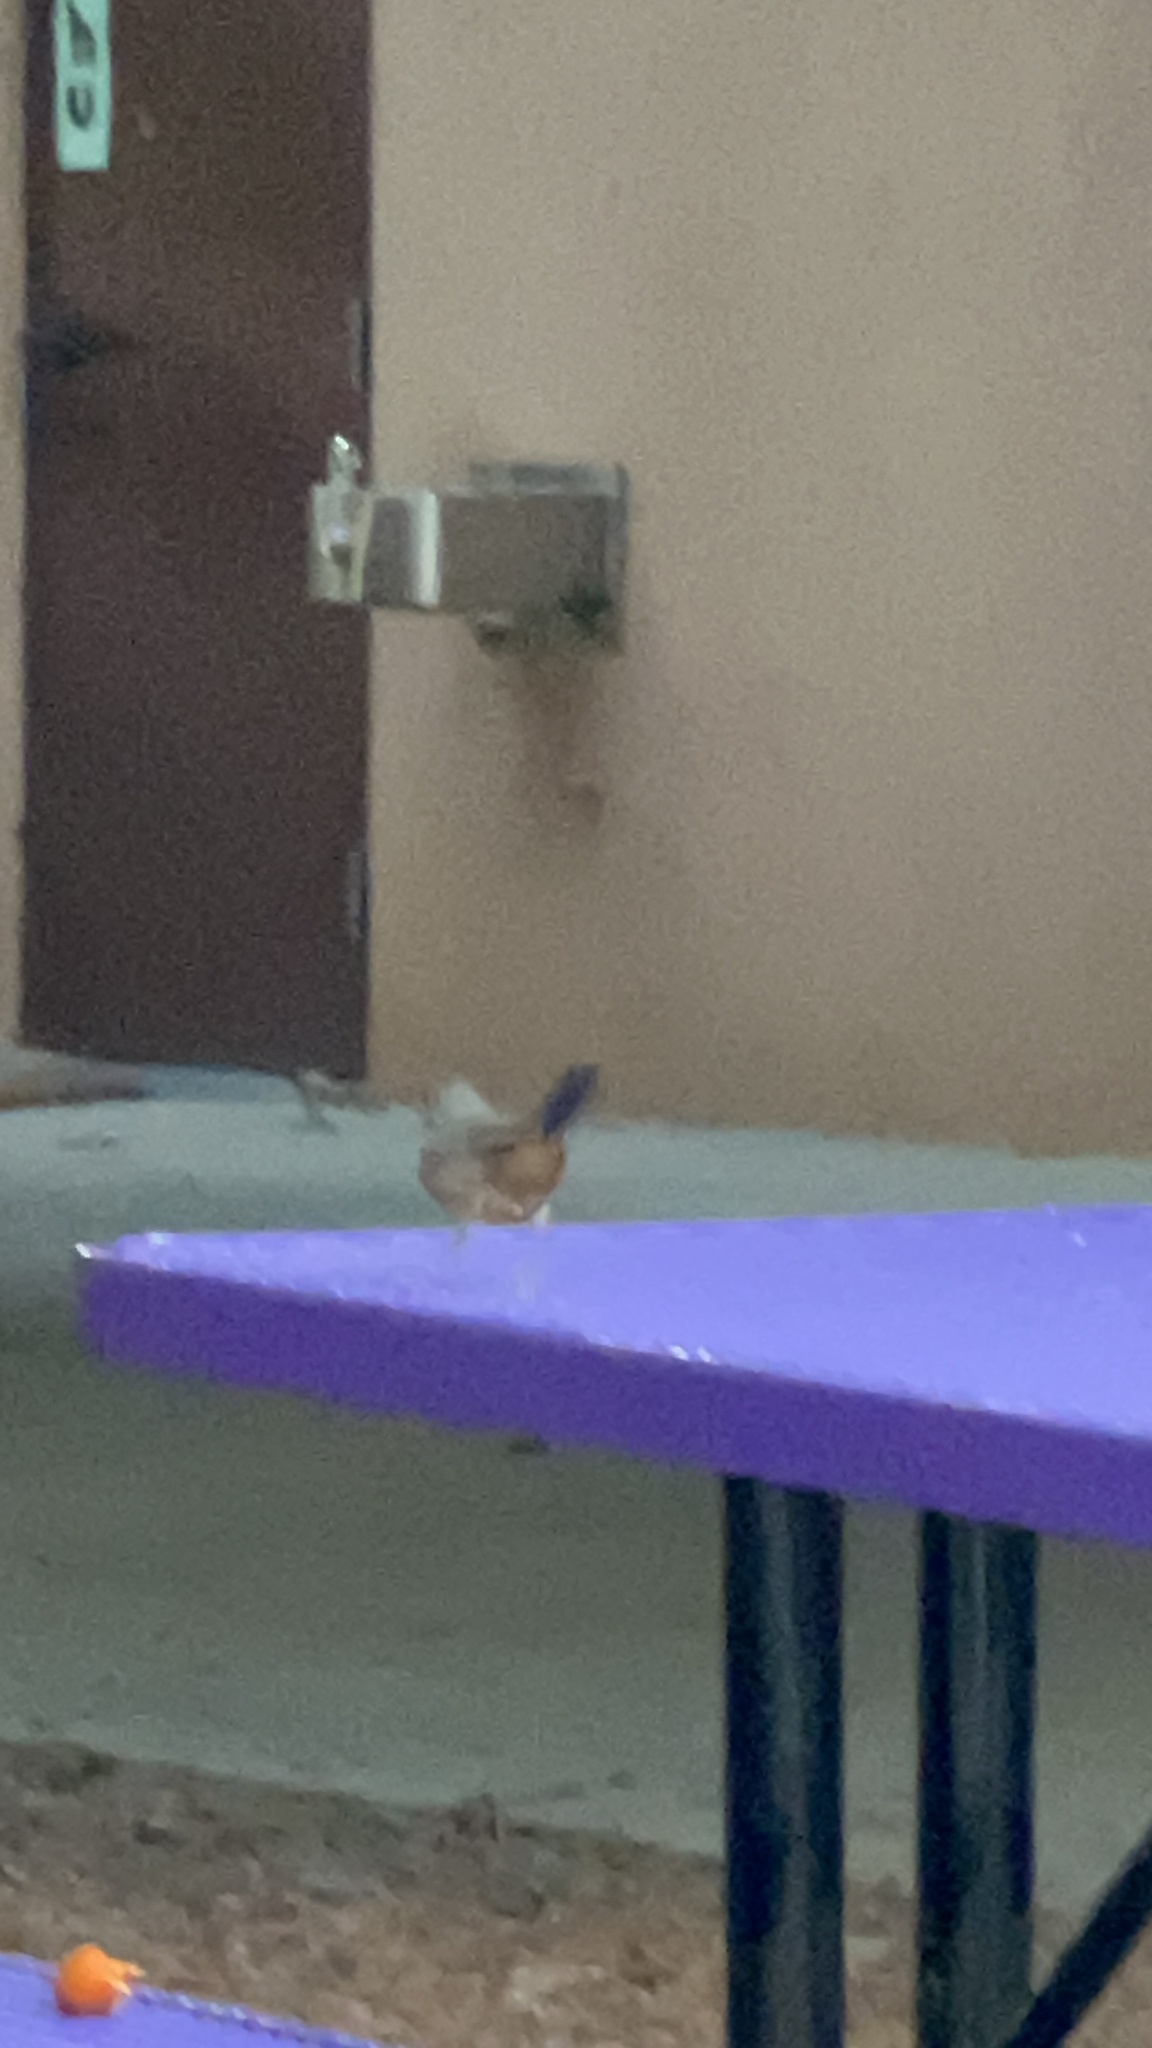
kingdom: Animalia
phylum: Chordata
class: Aves
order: Passeriformes
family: Passerellidae
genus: Melozone
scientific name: Melozone crissalis
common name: California towhee
